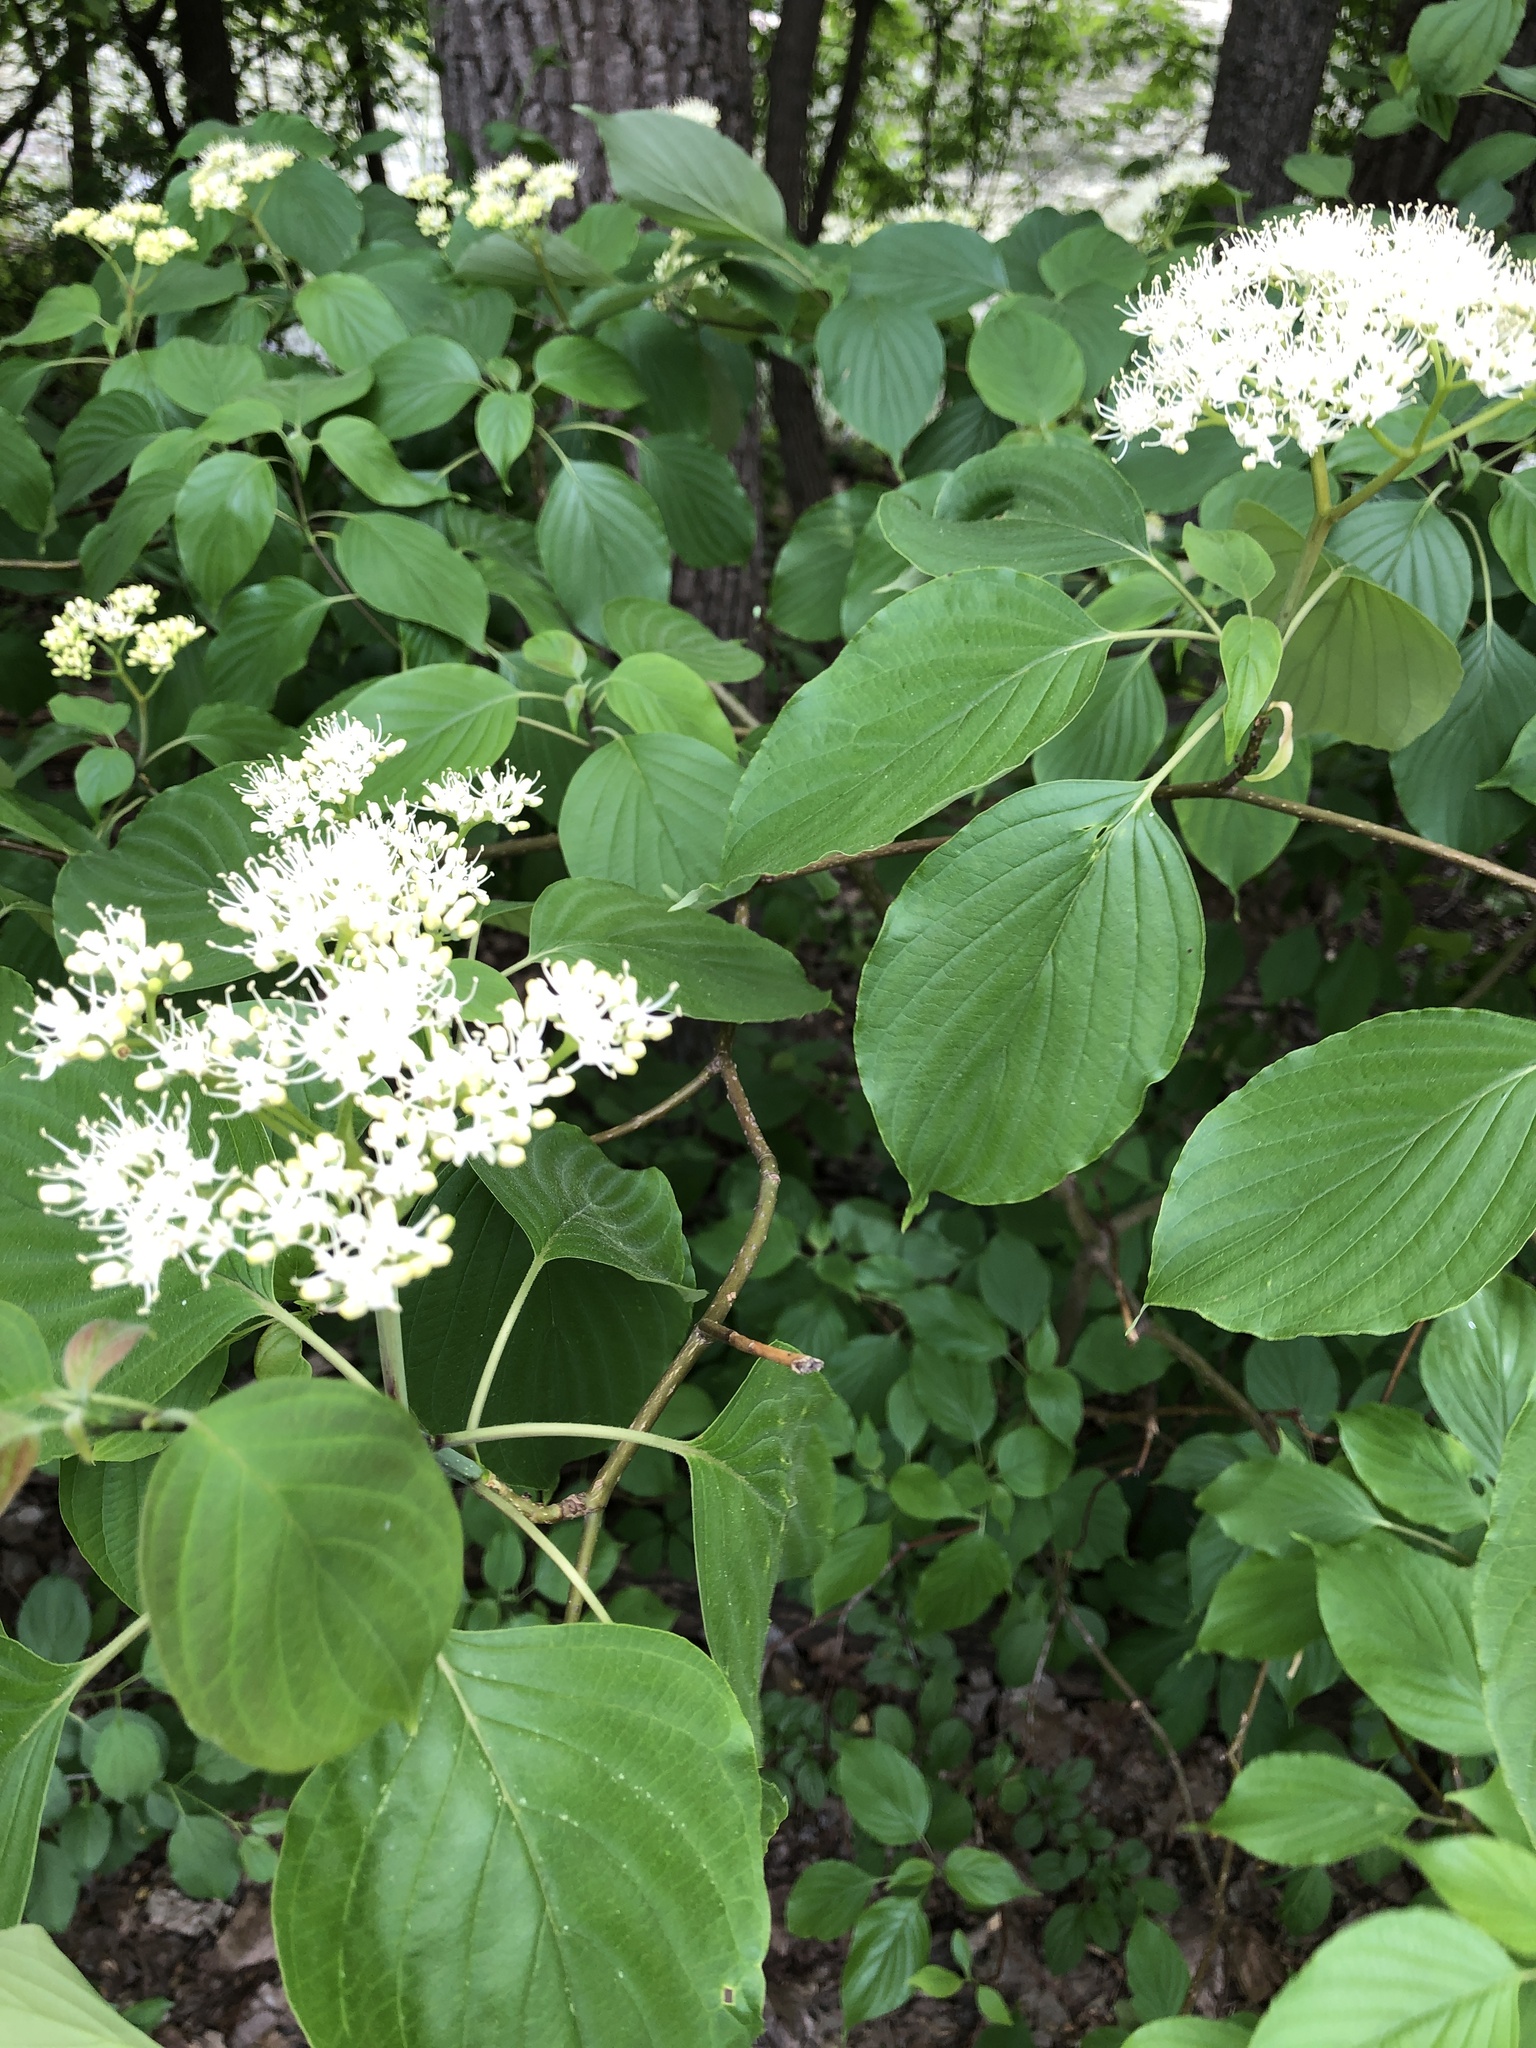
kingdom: Plantae
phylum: Tracheophyta
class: Magnoliopsida
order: Cornales
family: Cornaceae
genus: Cornus
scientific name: Cornus alternifolia
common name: Pagoda dogwood
